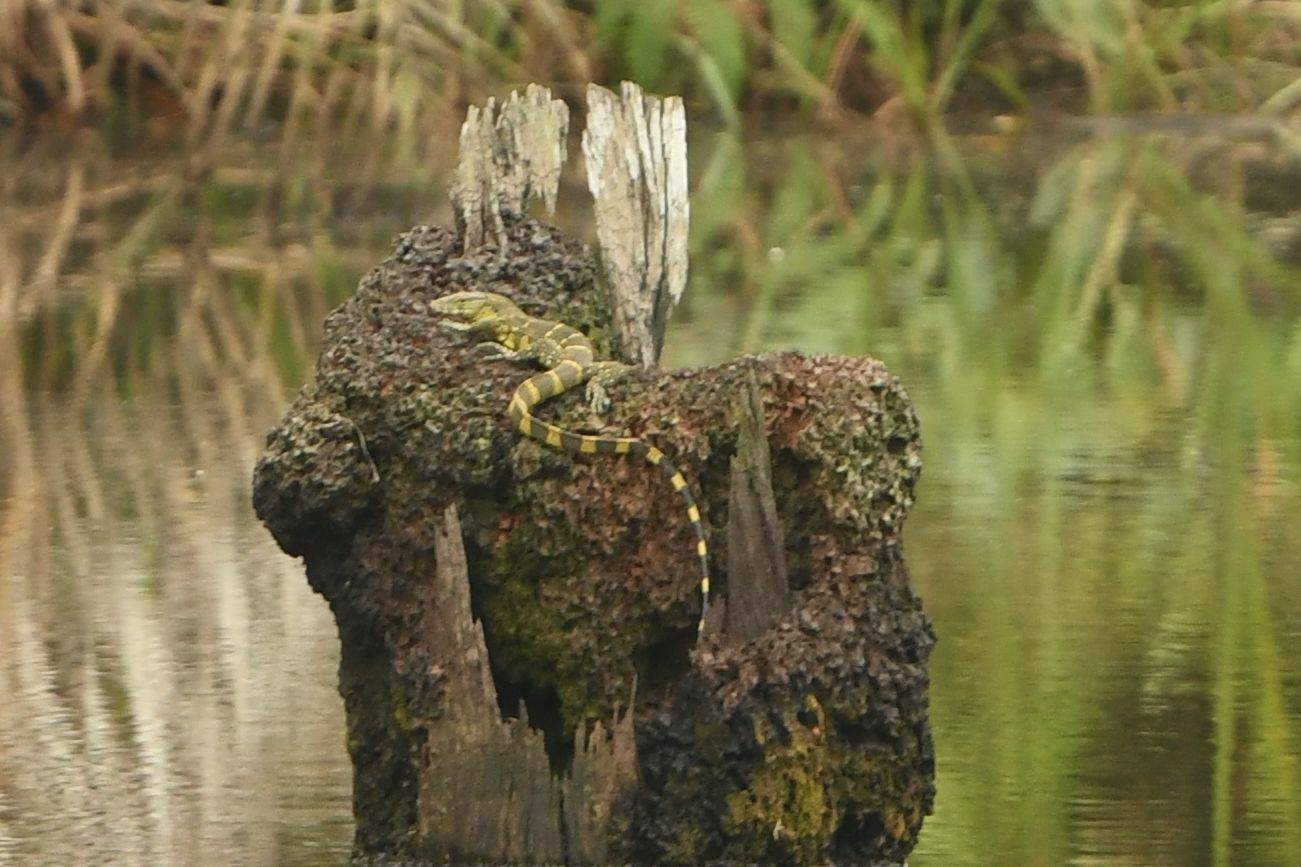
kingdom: Animalia
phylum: Chordata
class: Squamata
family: Varanidae
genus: Varanus
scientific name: Varanus niloticus
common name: Nile monitor
